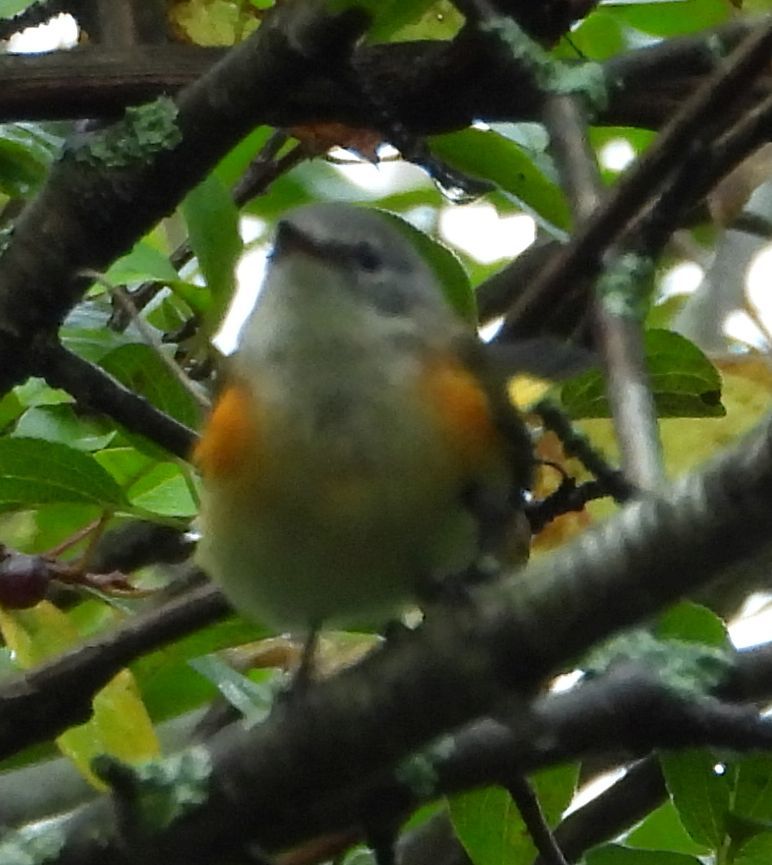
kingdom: Animalia
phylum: Chordata
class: Aves
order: Passeriformes
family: Parulidae
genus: Setophaga
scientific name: Setophaga ruticilla
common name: American redstart
